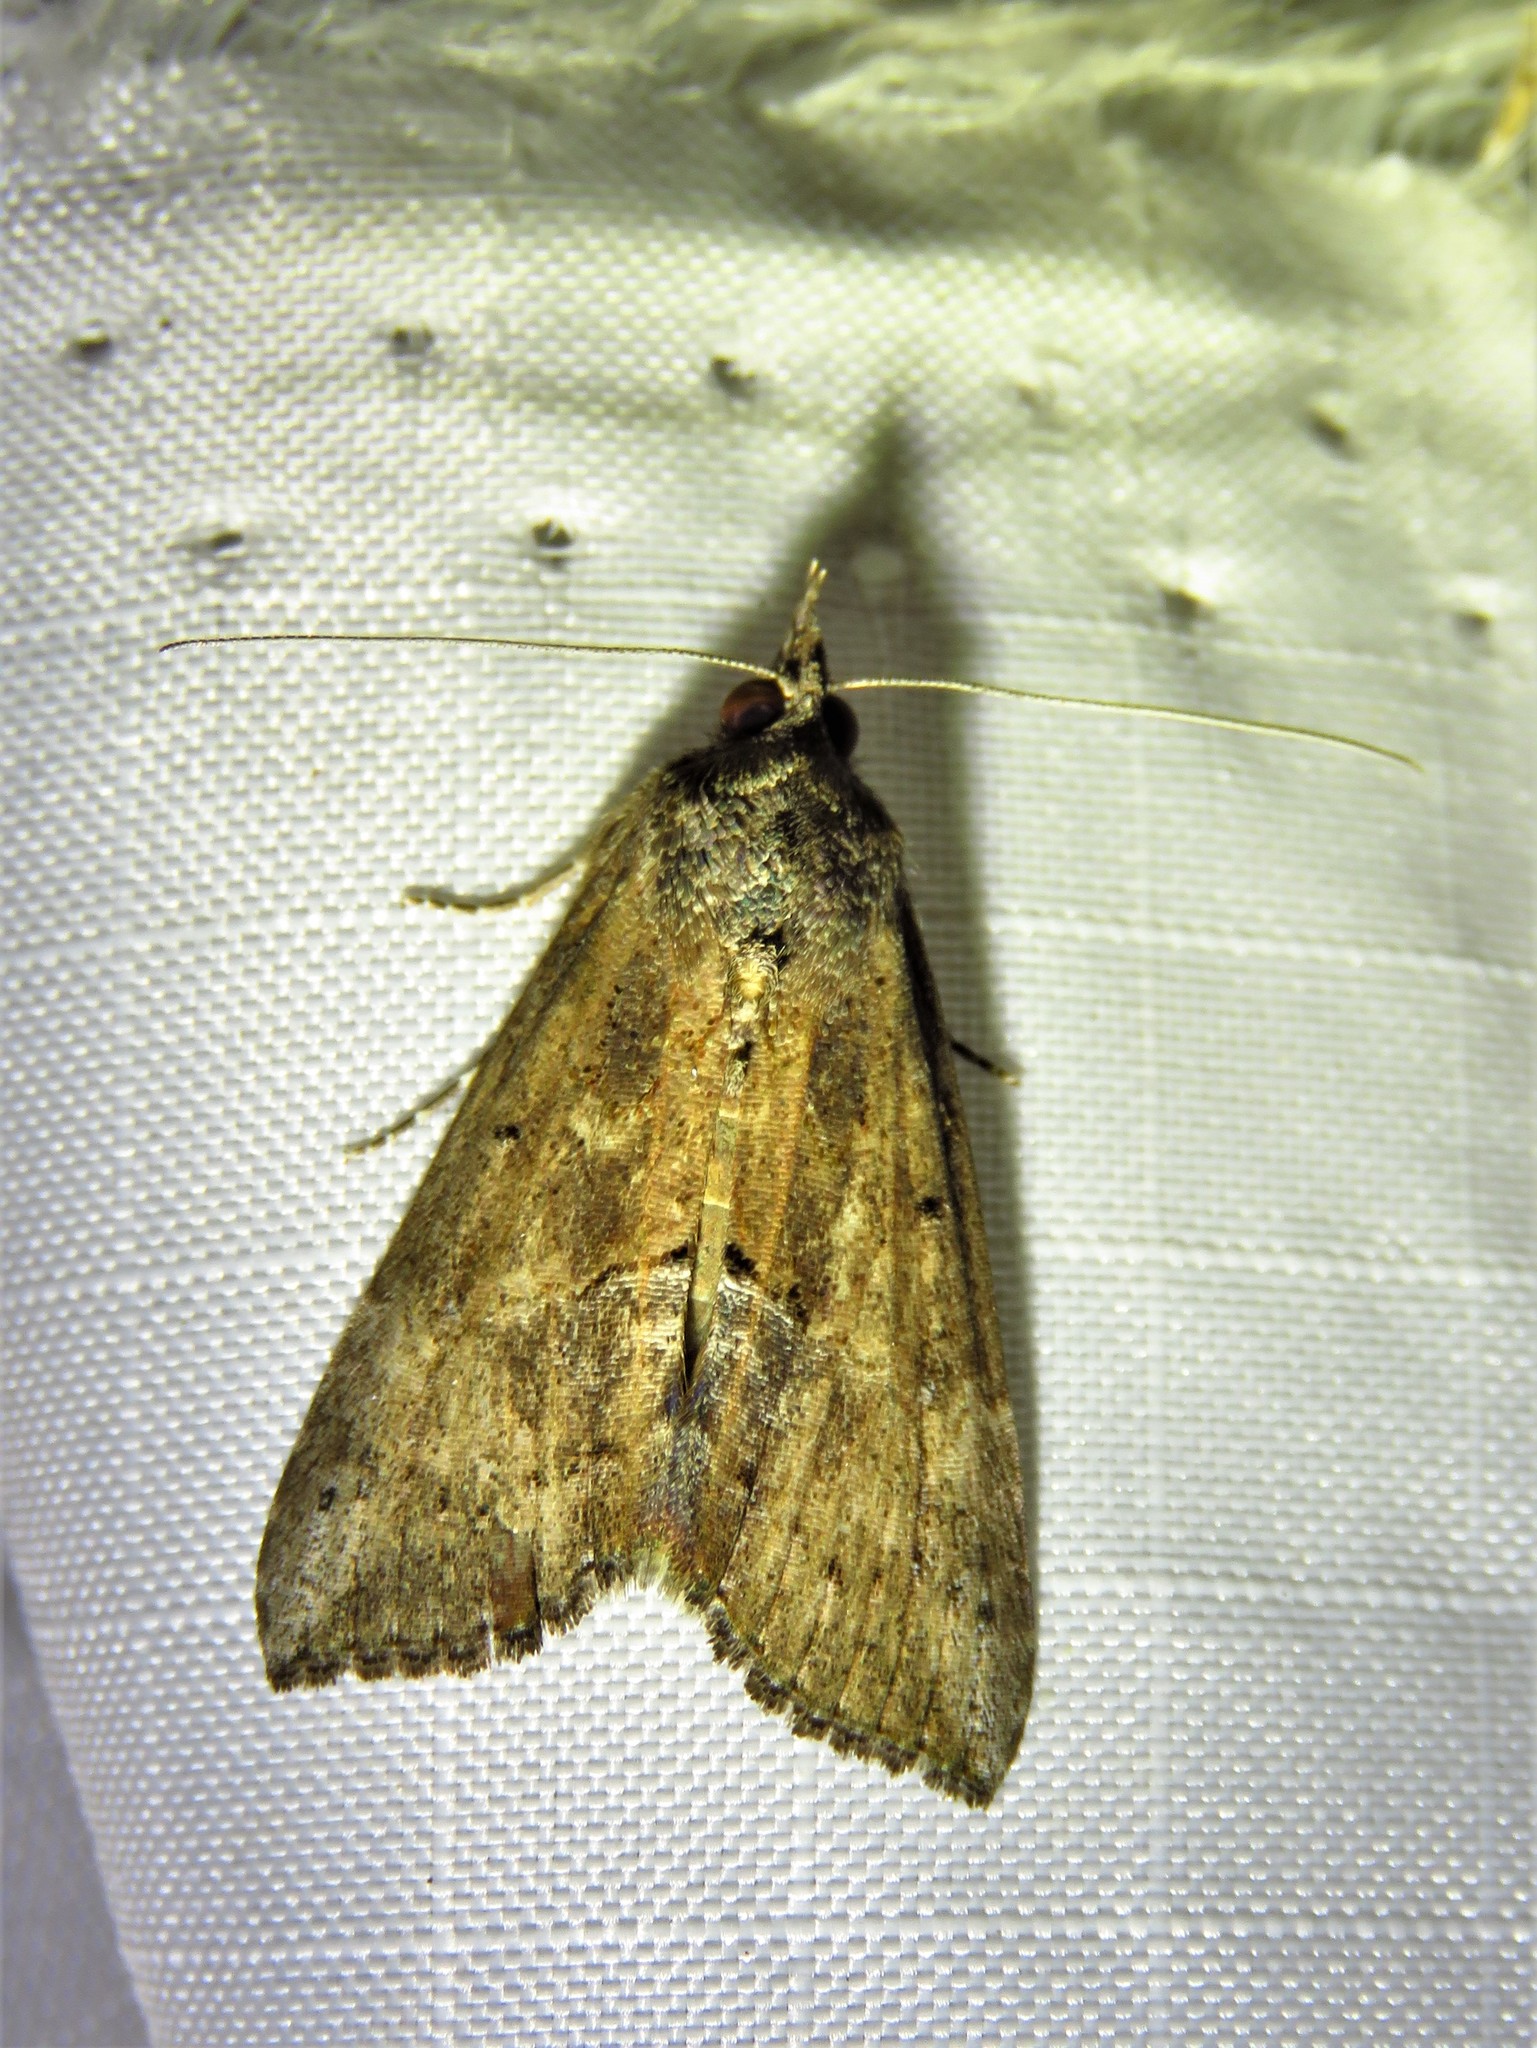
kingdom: Animalia
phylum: Arthropoda
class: Insecta
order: Lepidoptera
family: Erebidae
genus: Hypena
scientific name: Hypena scabra
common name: Green cloverworm
